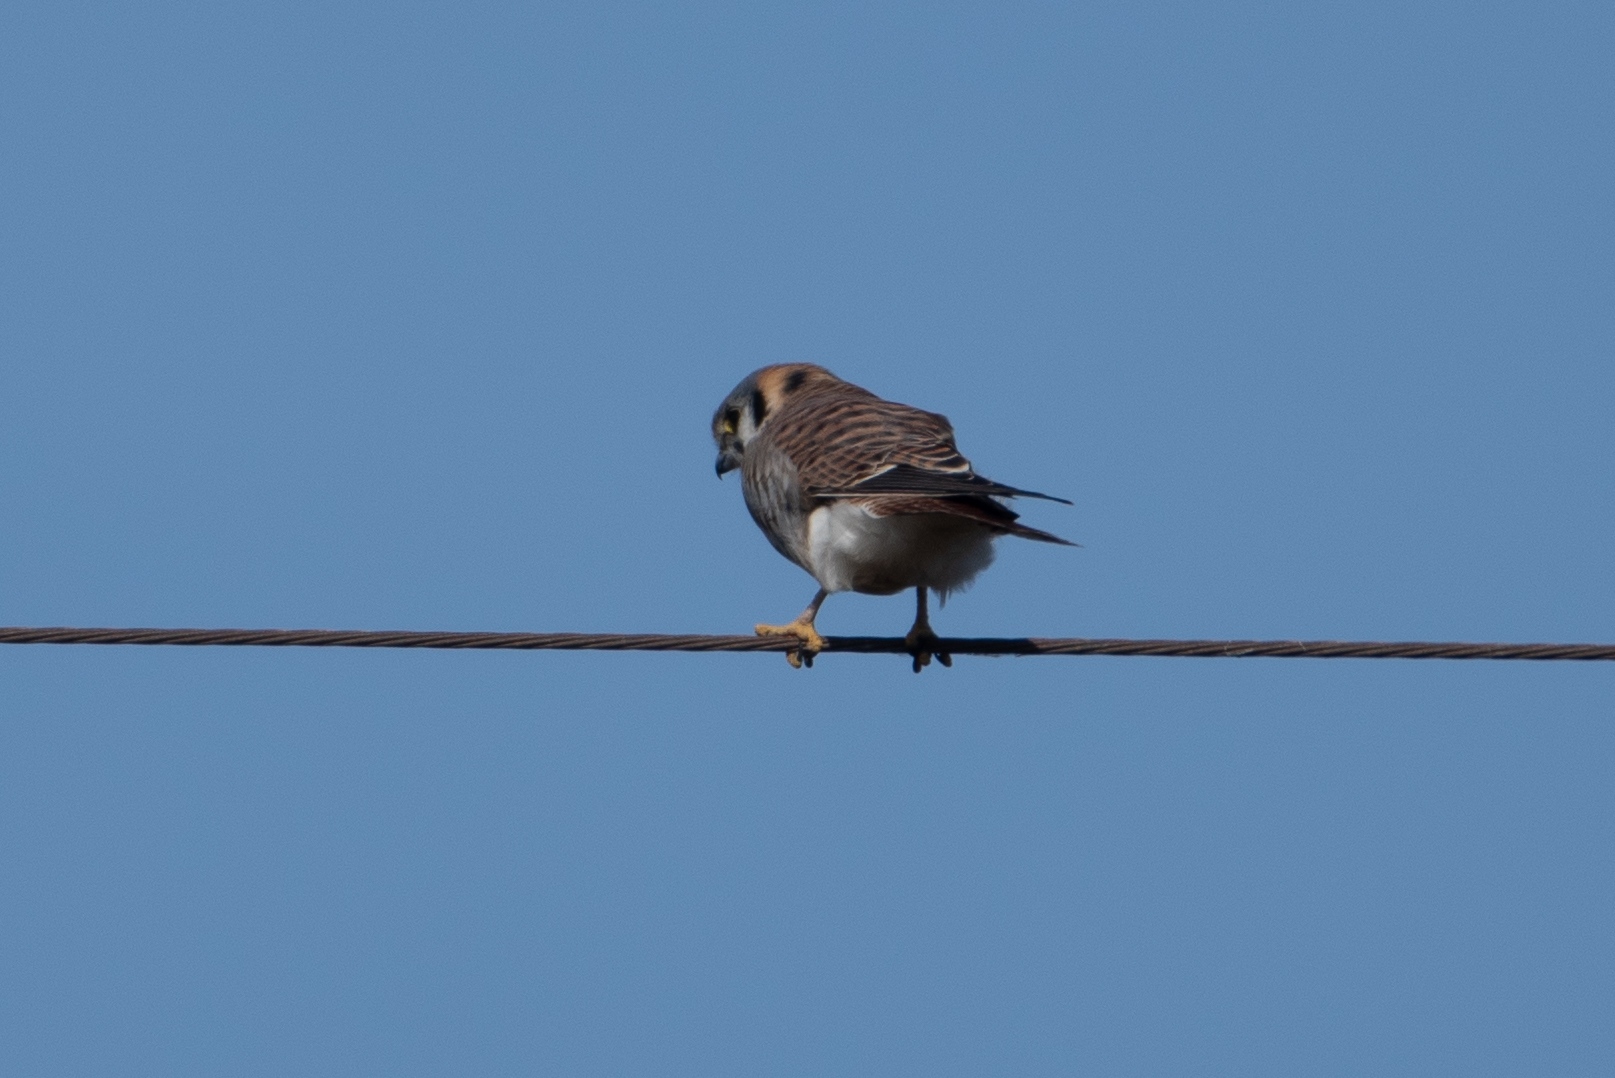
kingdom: Animalia
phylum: Chordata
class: Aves
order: Falconiformes
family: Falconidae
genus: Falco
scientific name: Falco sparverius
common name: American kestrel
